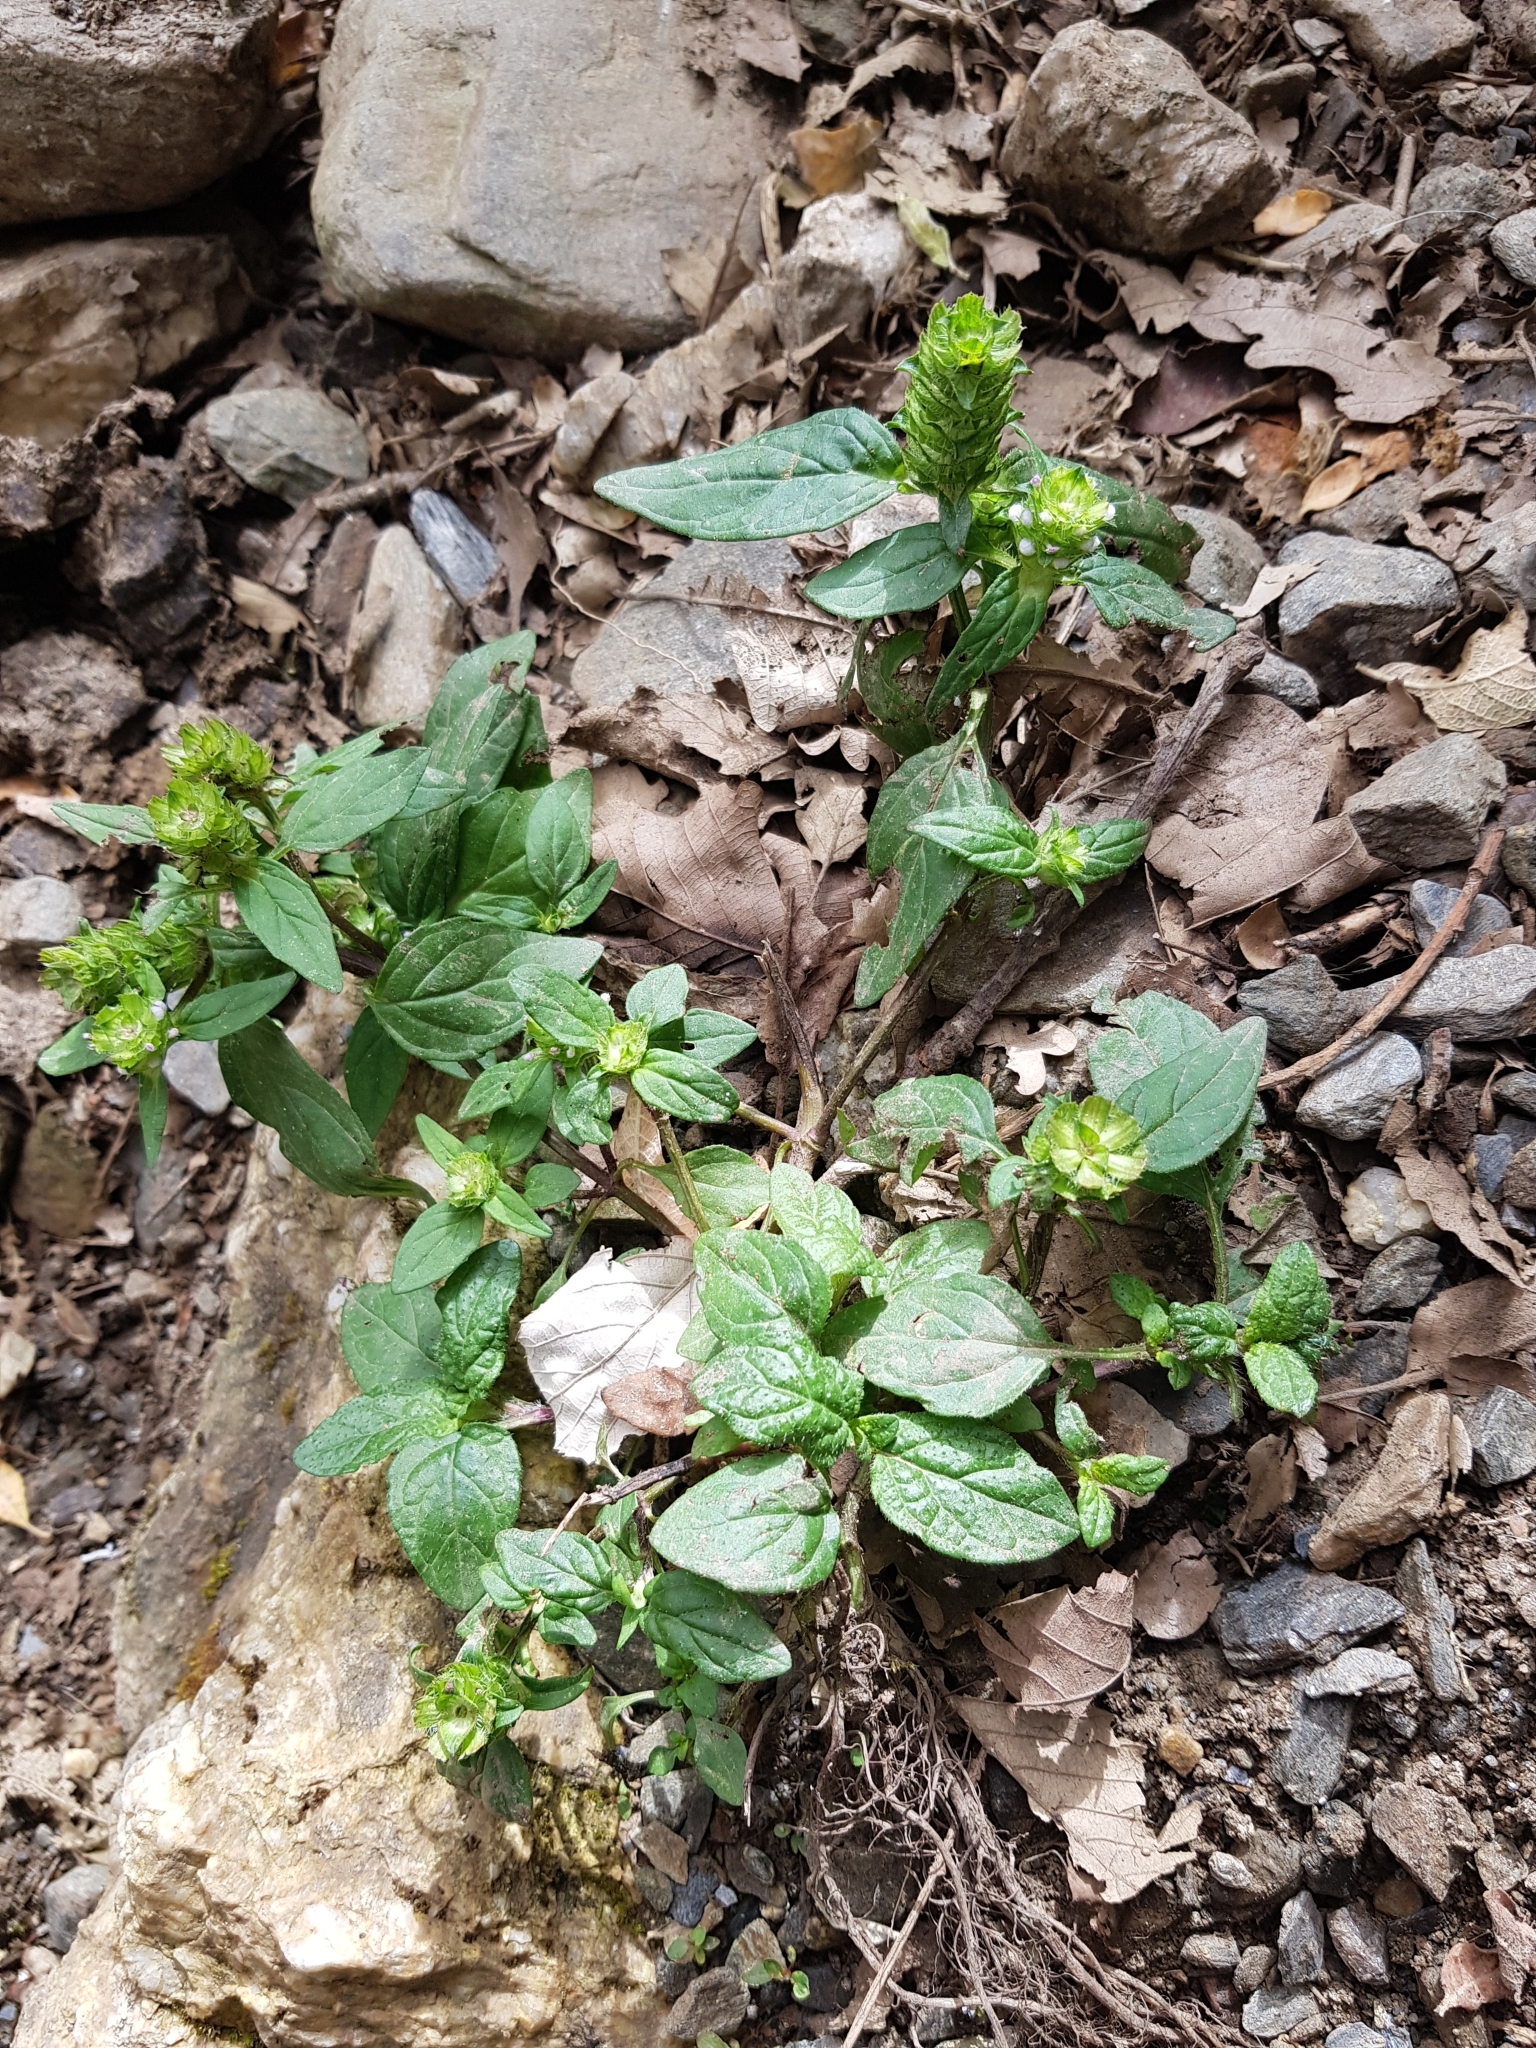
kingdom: Plantae
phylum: Tracheophyta
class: Magnoliopsida
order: Lamiales
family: Lamiaceae
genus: Prunella
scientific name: Prunella vulgaris
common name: Heal-all
